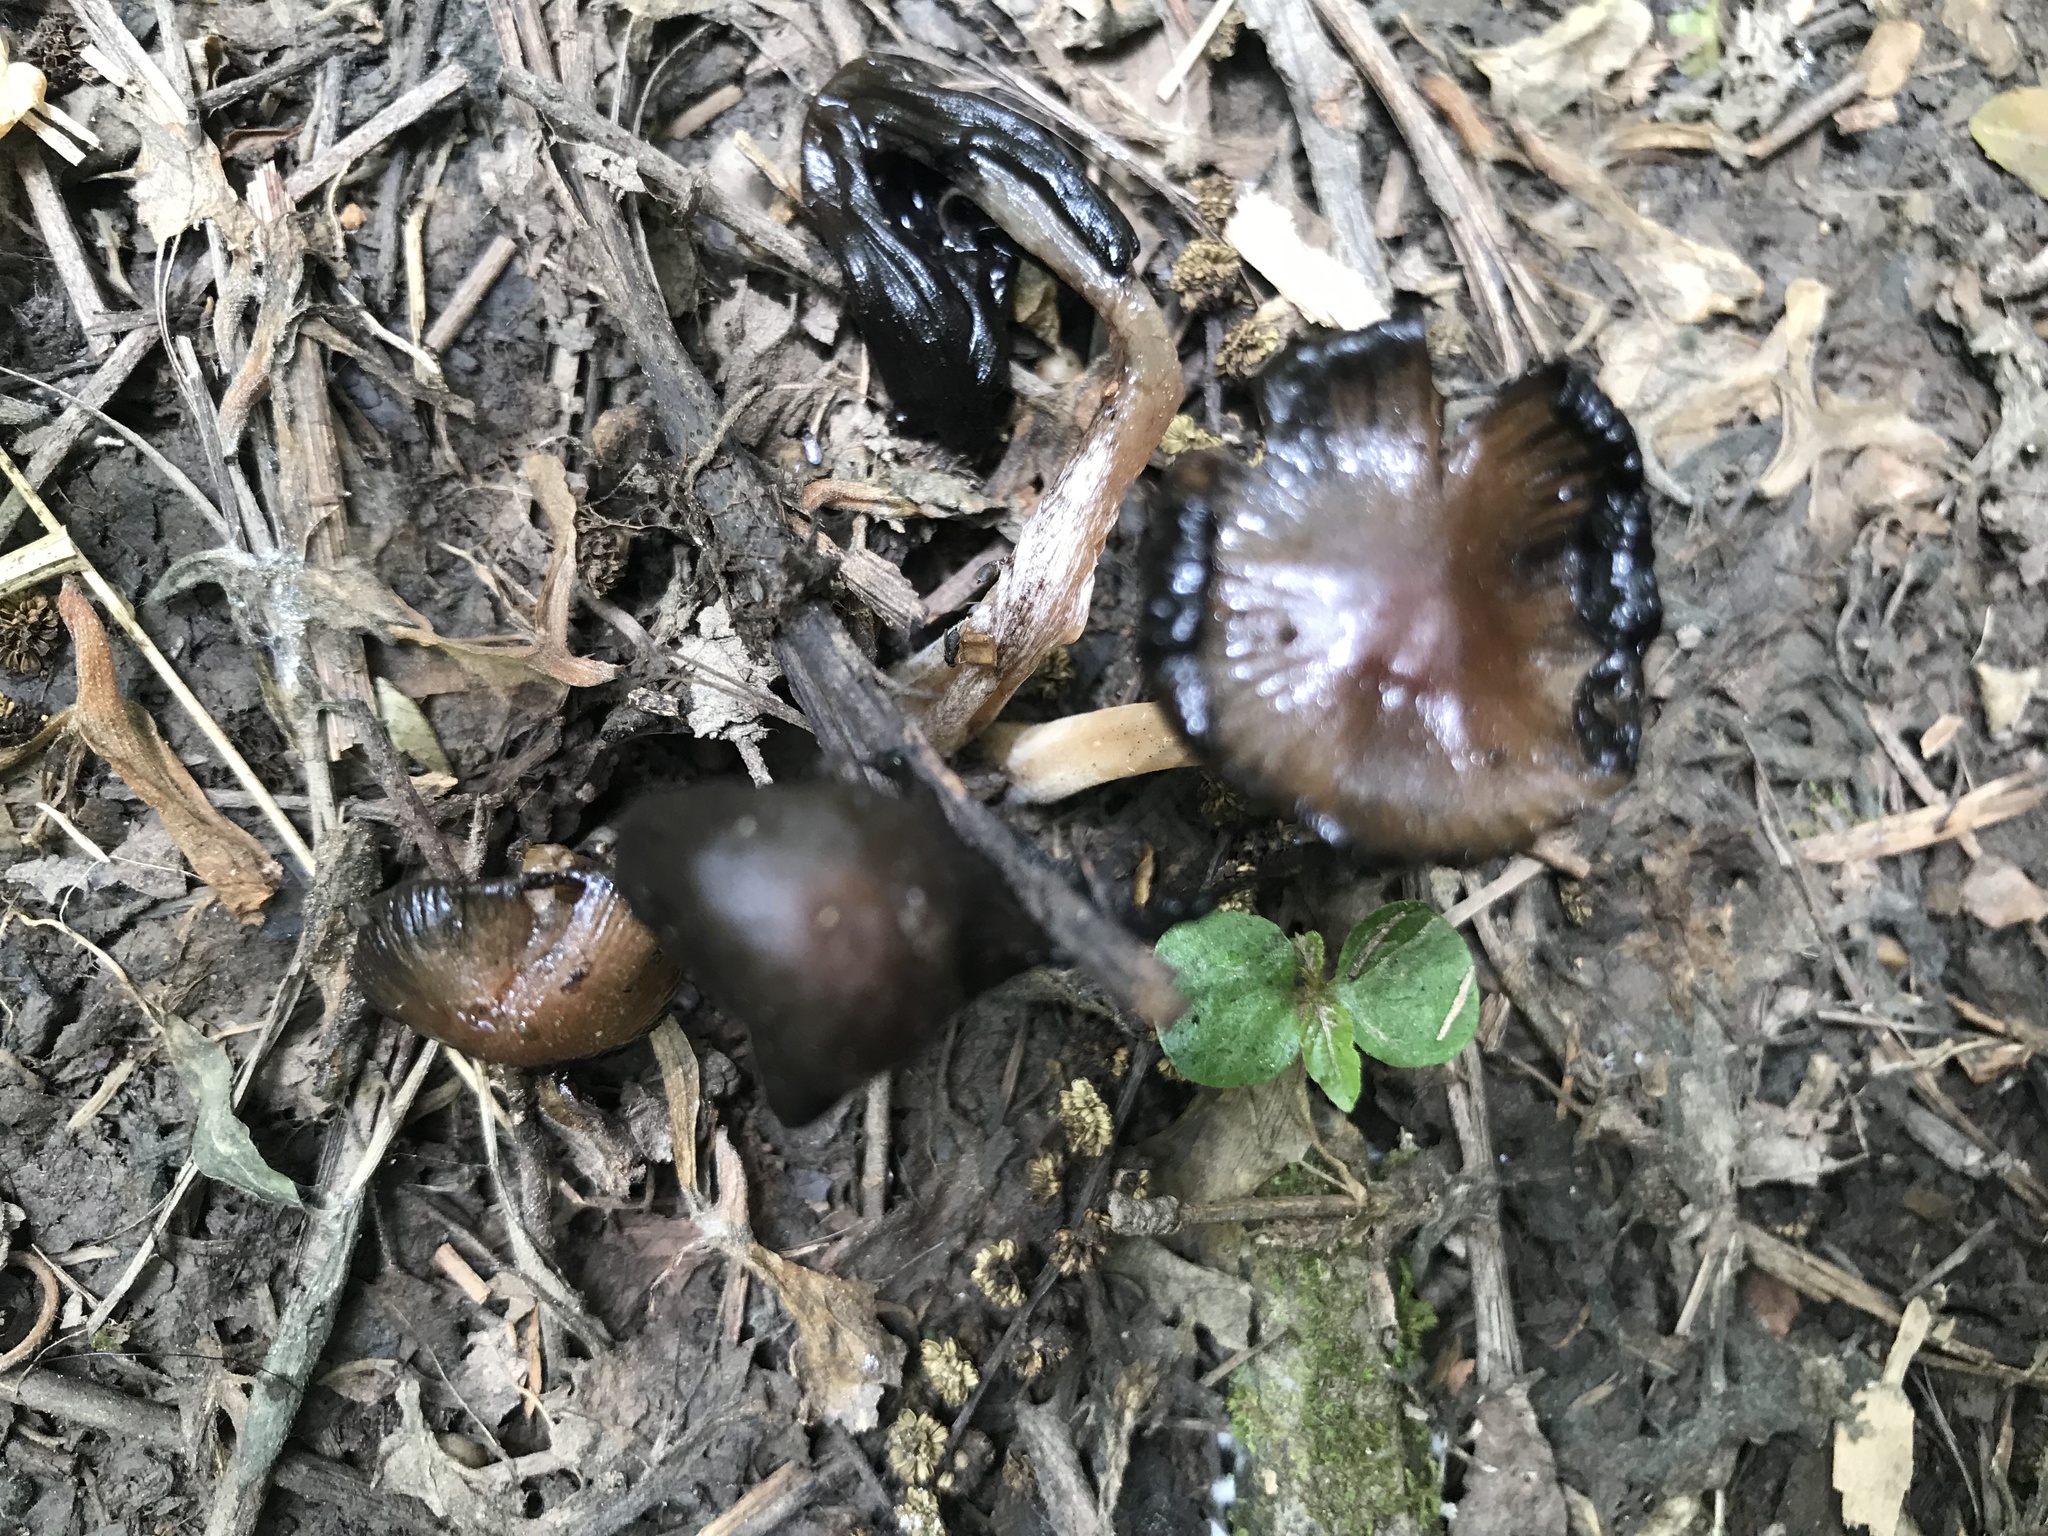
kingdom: Fungi
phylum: Basidiomycota
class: Agaricomycetes
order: Agaricales
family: Psathyrellaceae
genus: Coprinopsis
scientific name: Coprinopsis atramentaria
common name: Common ink-cap
